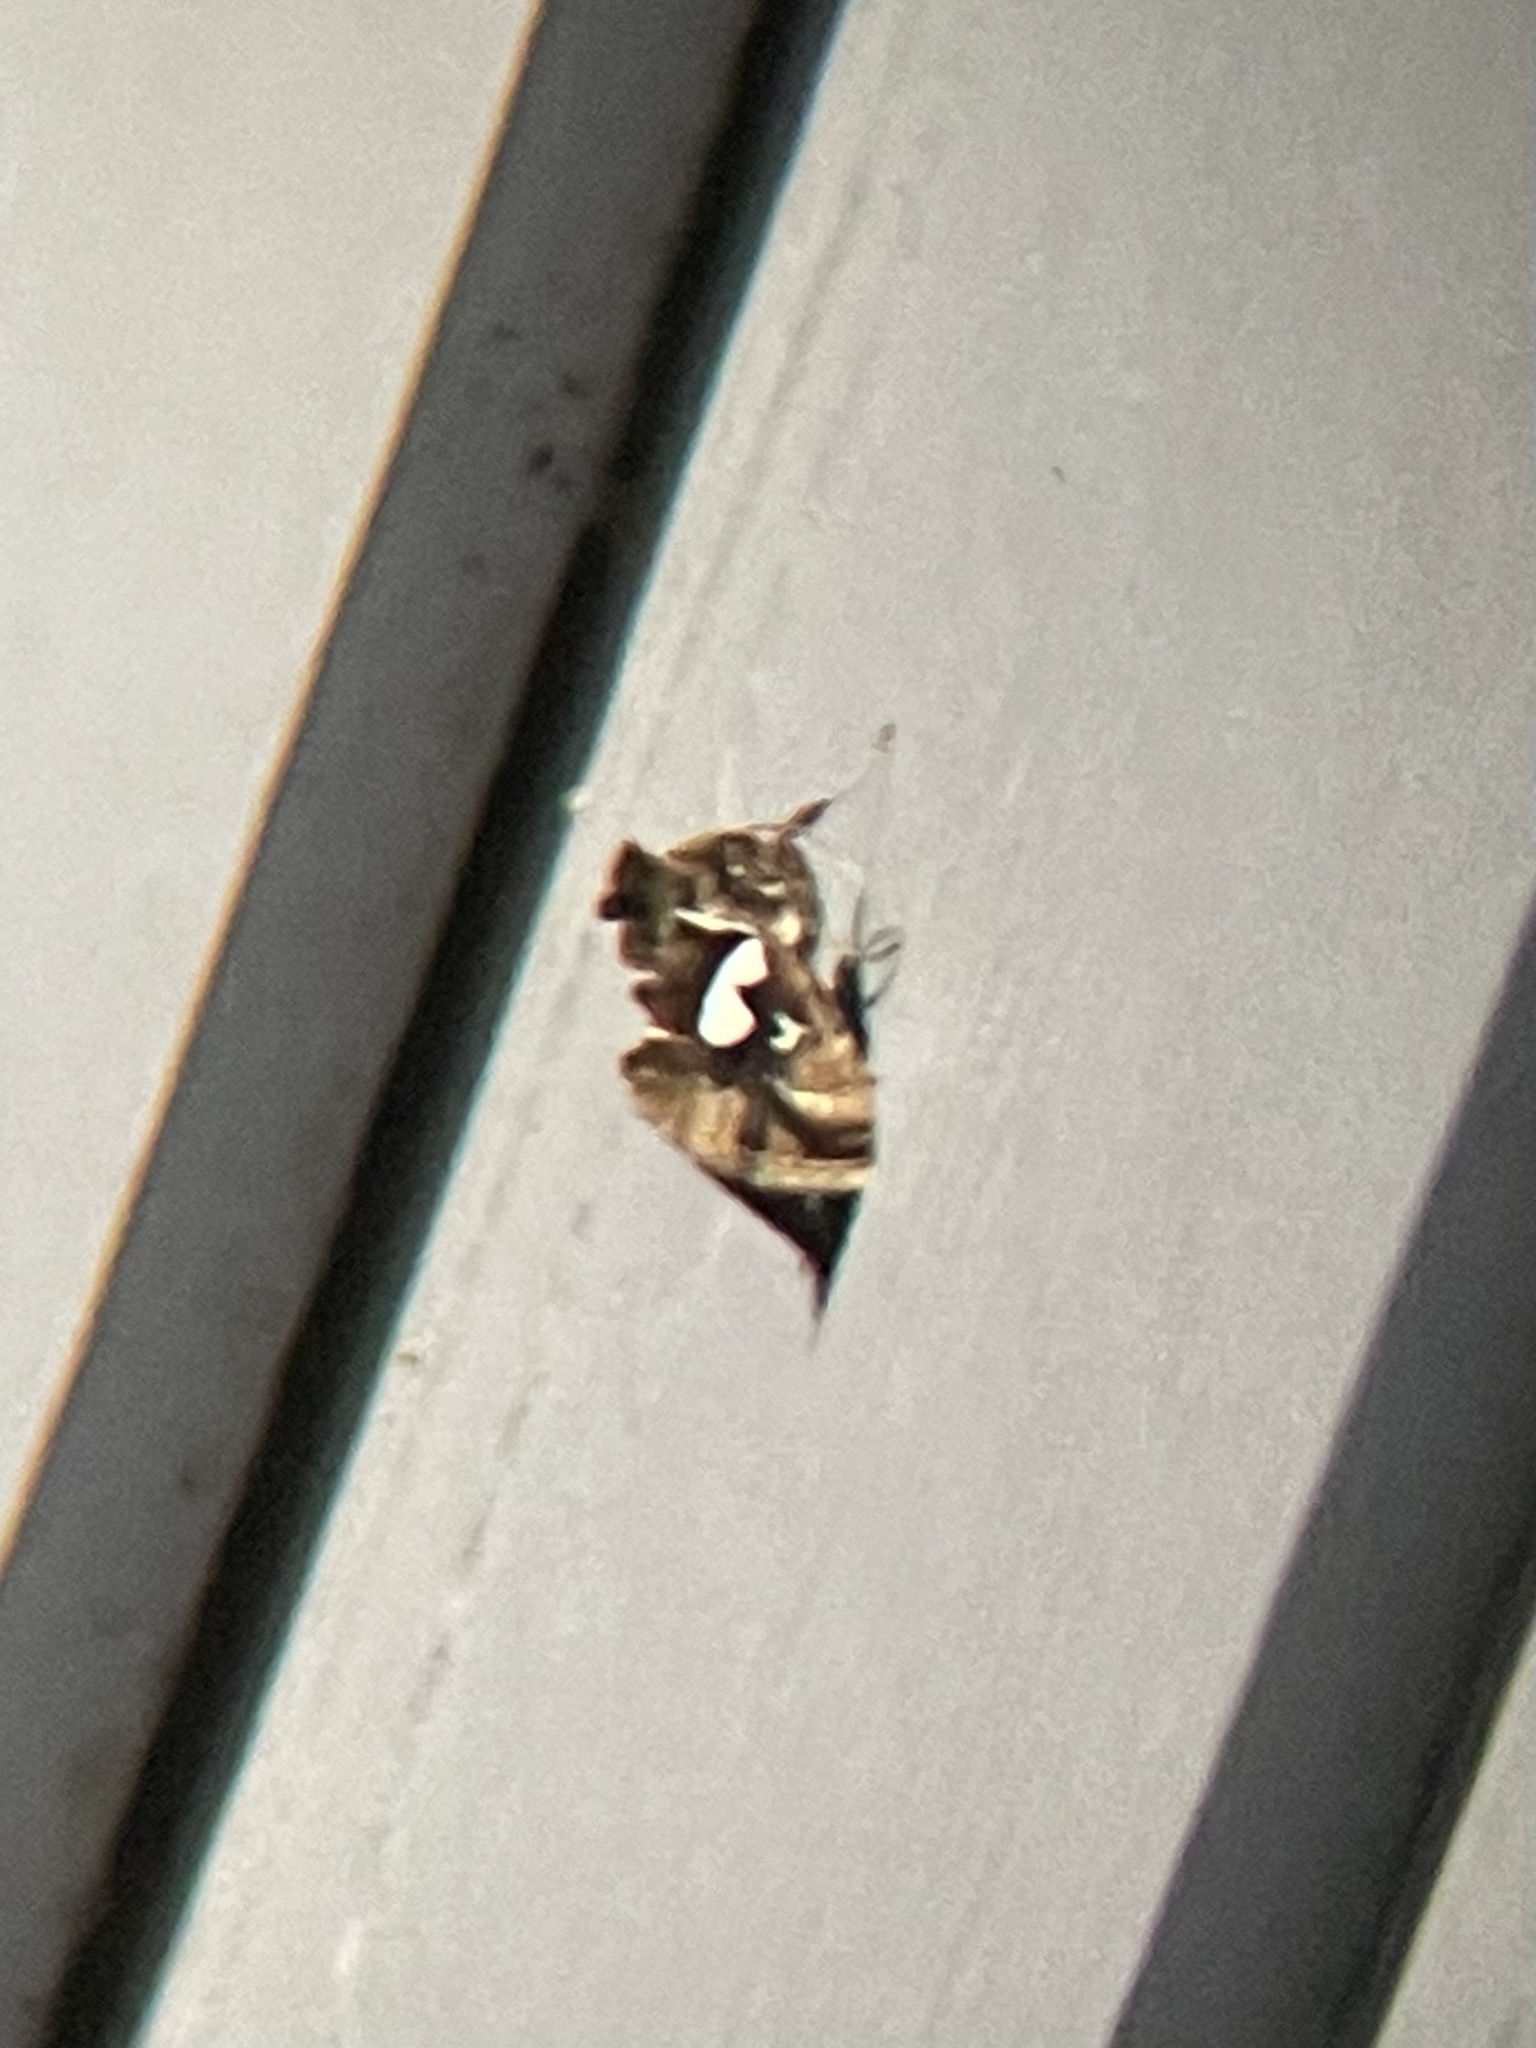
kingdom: Animalia
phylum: Arthropoda
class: Insecta
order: Lepidoptera
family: Noctuidae
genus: Megalographa
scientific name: Megalographa biloba
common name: Cutworm
